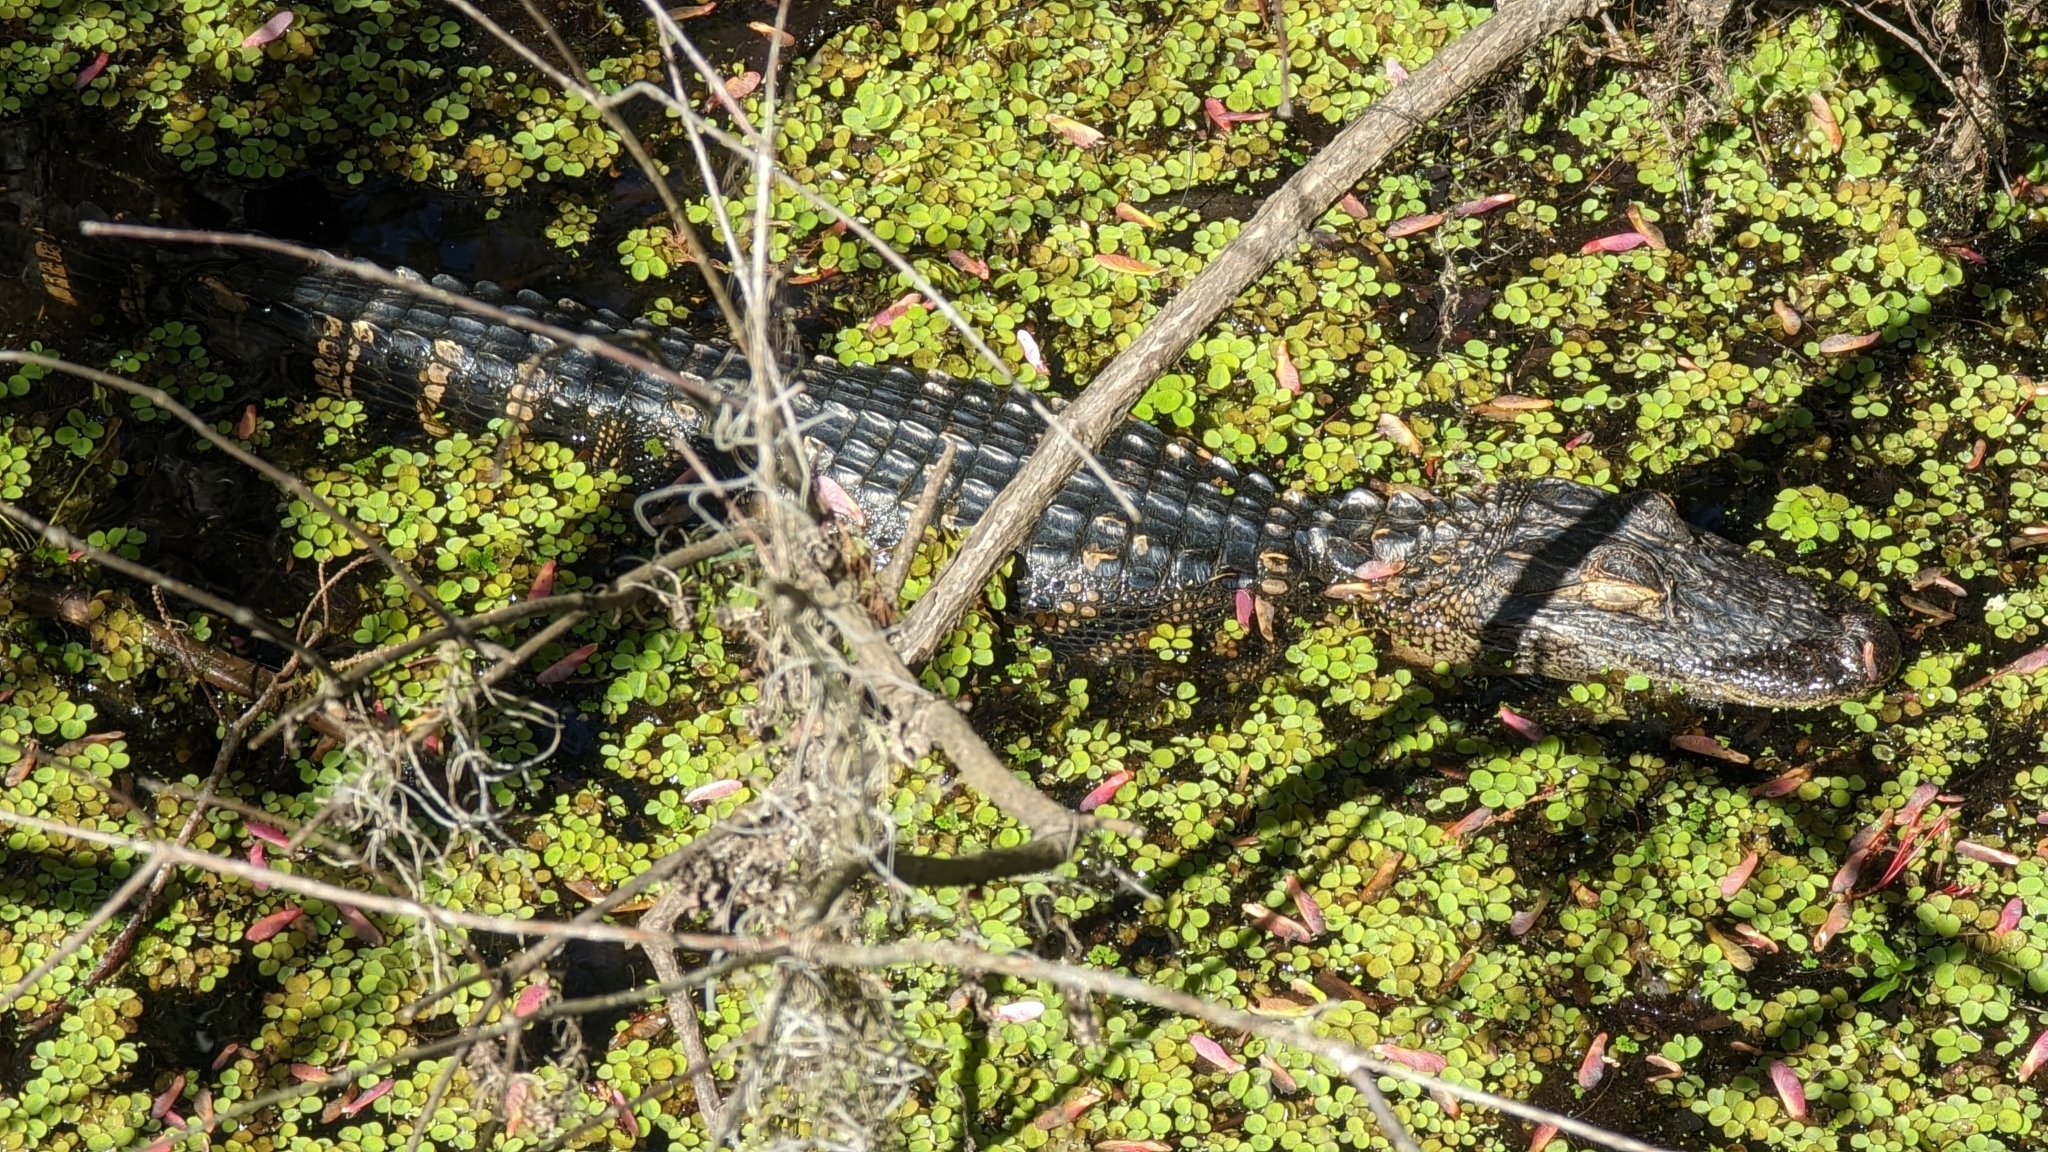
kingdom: Animalia
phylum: Chordata
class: Crocodylia
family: Alligatoridae
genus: Alligator
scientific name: Alligator mississippiensis
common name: American alligator
